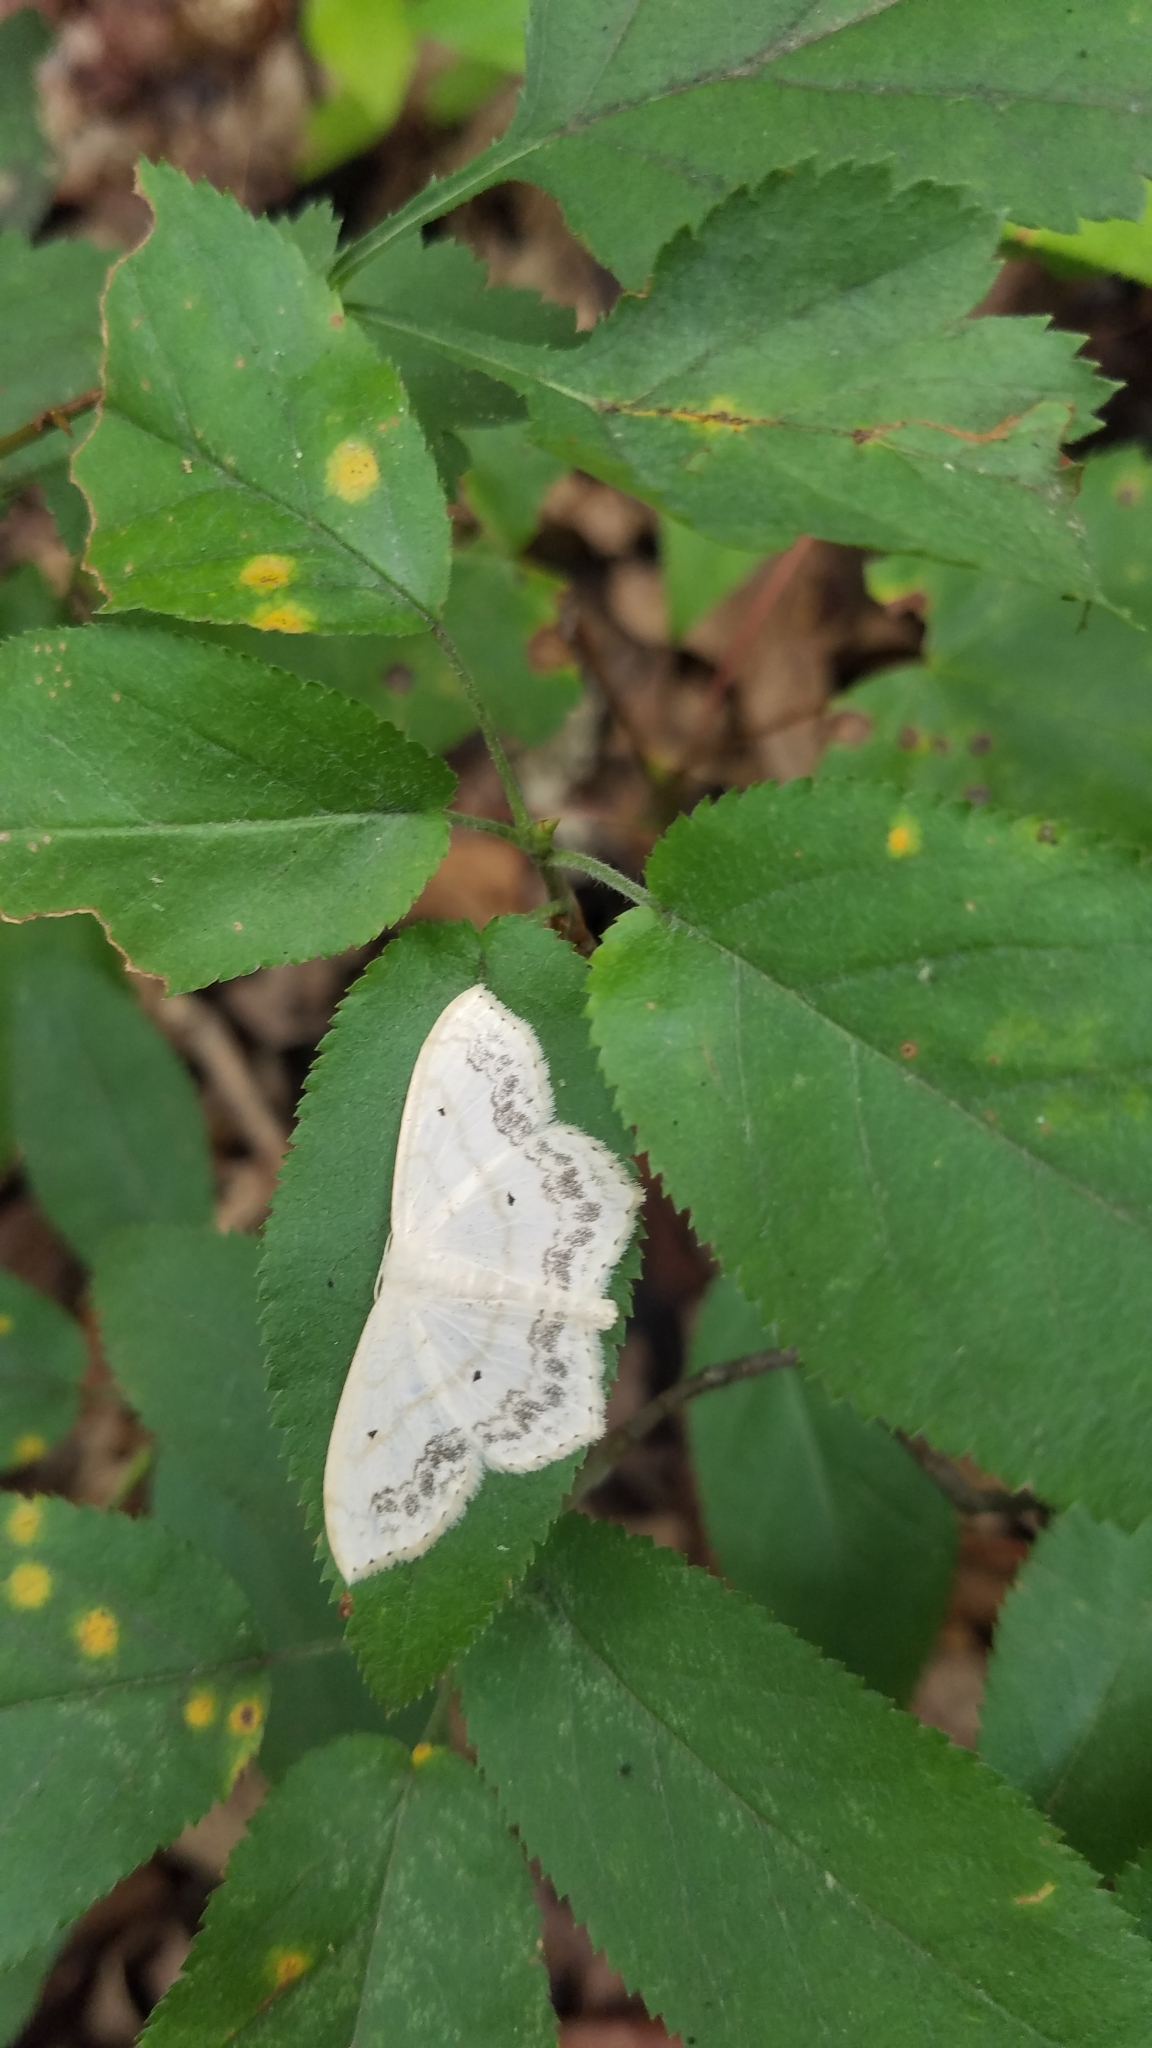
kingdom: Animalia
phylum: Arthropoda
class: Insecta
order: Lepidoptera
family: Geometridae
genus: Scopula
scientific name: Scopula limboundata
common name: Large lace border
